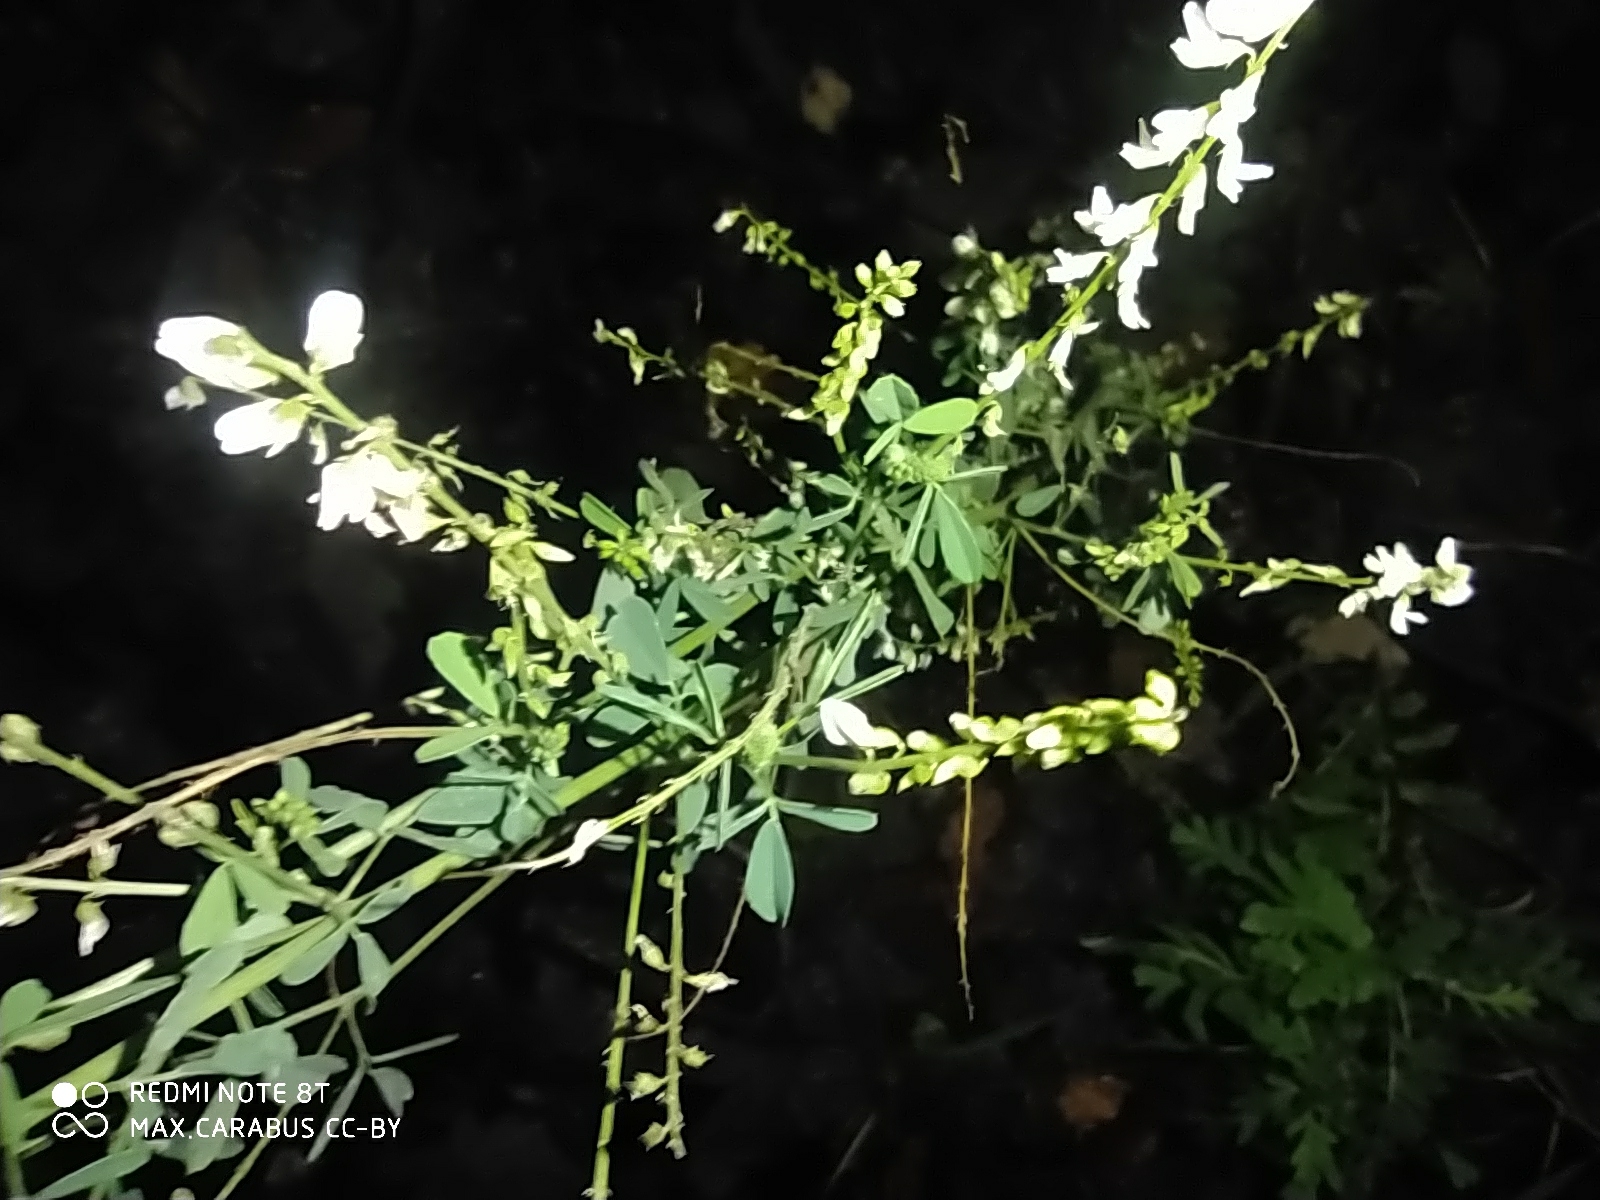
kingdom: Plantae
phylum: Tracheophyta
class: Magnoliopsida
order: Fabales
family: Fabaceae
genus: Melilotus
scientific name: Melilotus albus
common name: White melilot
